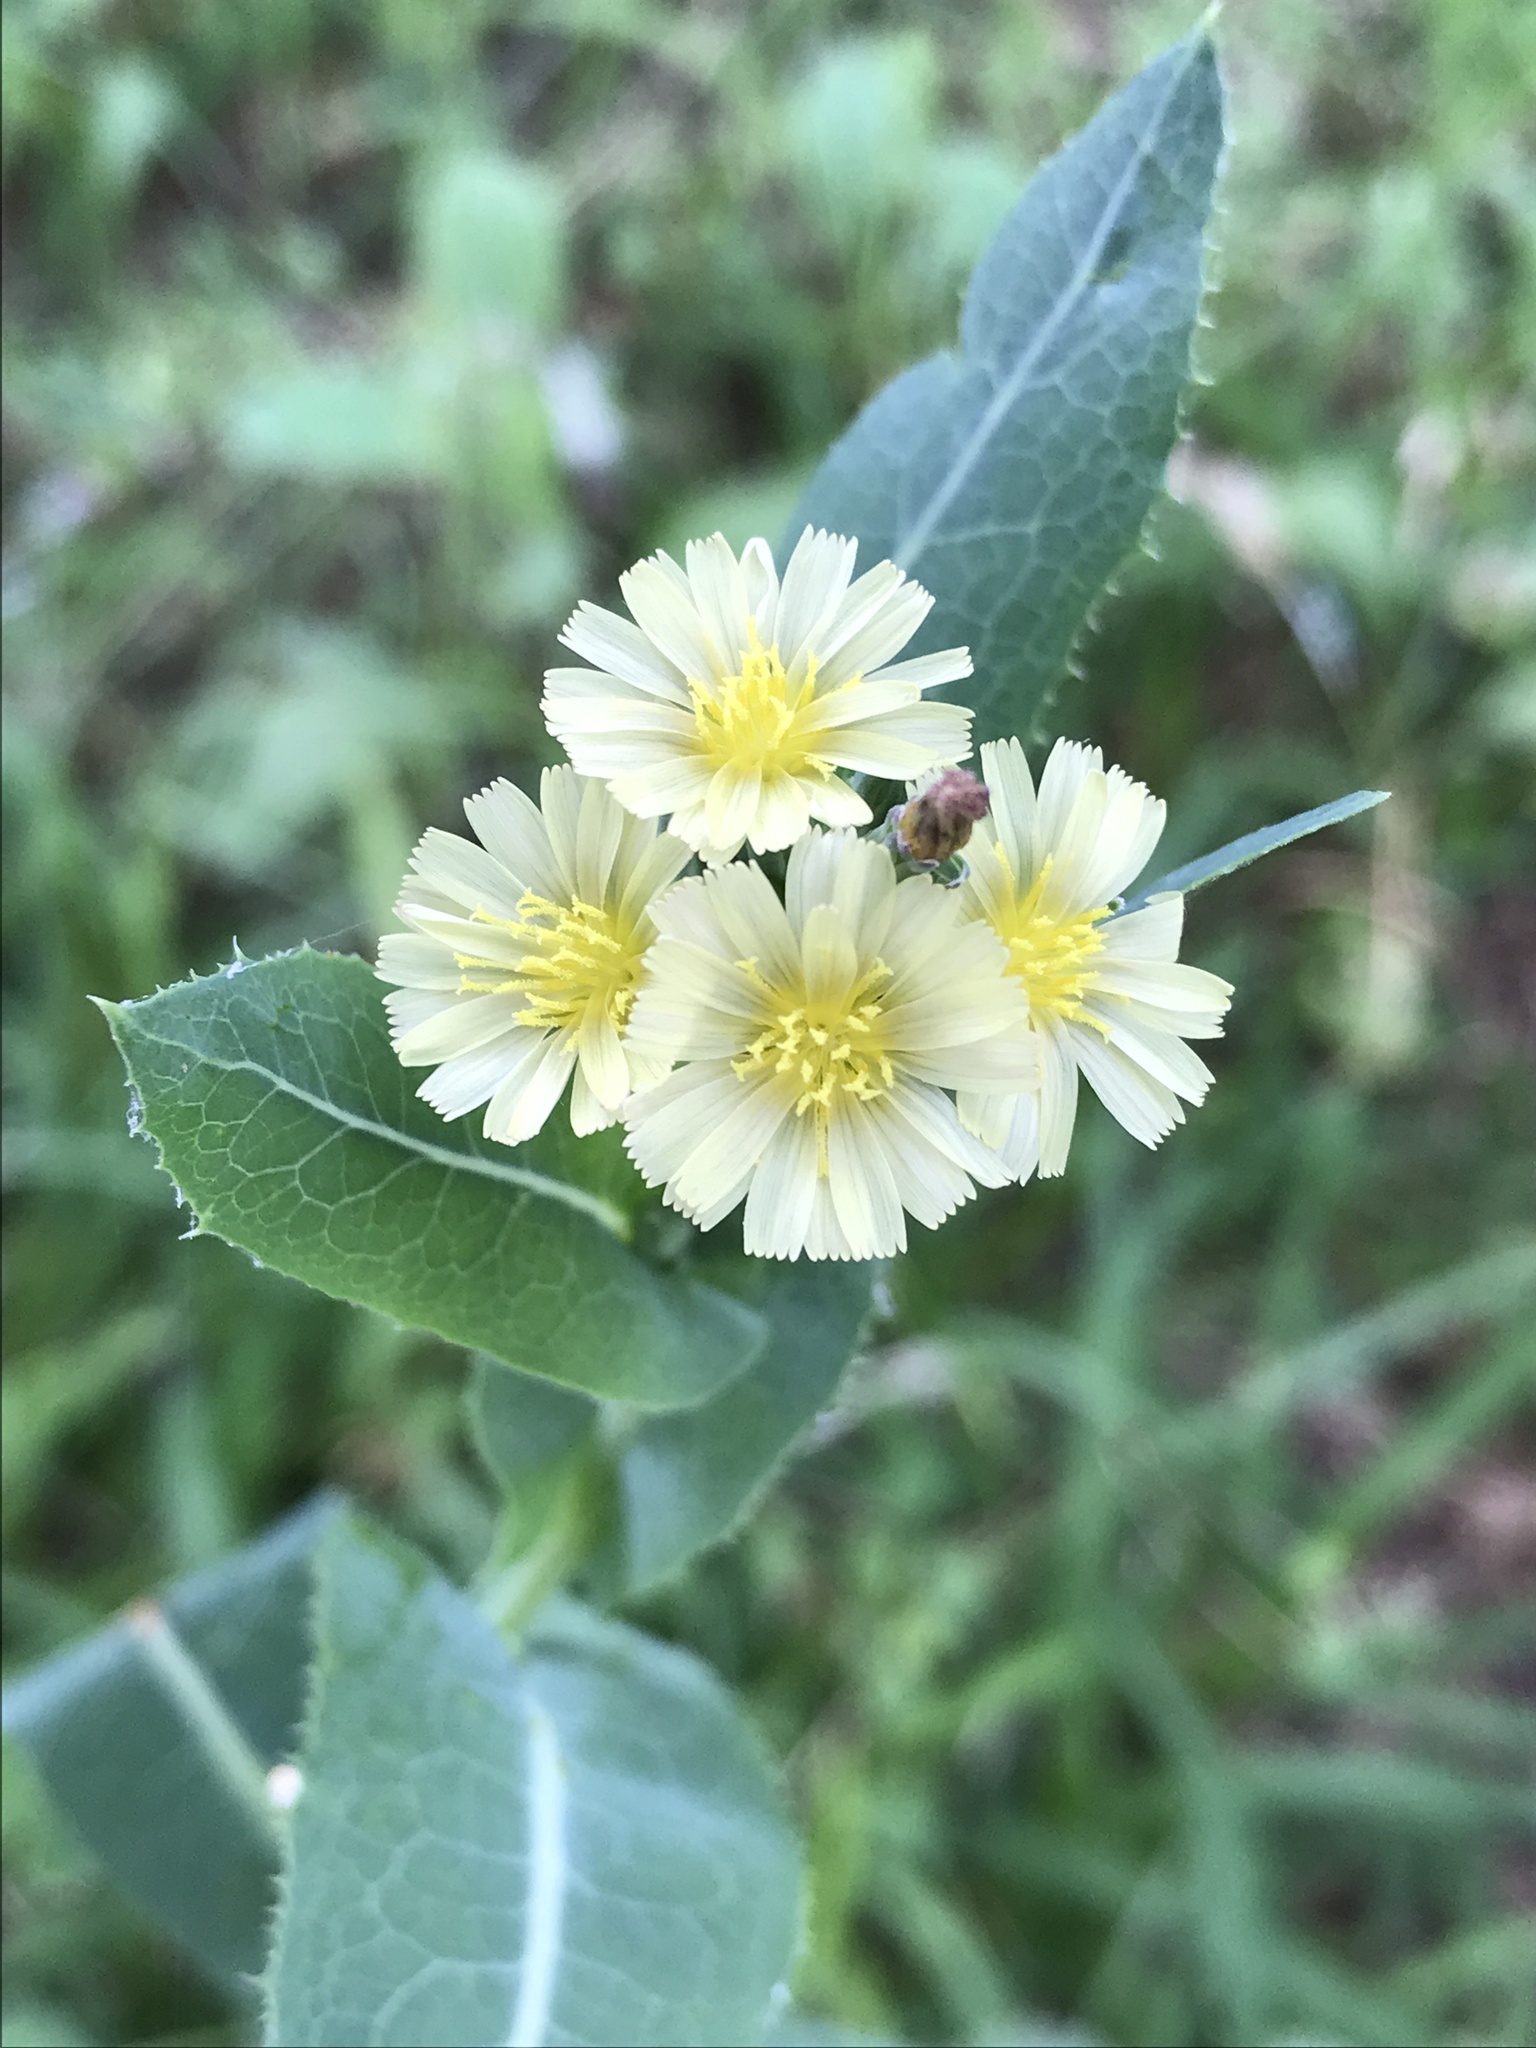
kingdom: Plantae
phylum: Tracheophyta
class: Magnoliopsida
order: Asterales
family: Asteraceae
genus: Lactuca
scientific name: Lactuca serriola
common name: Prickly lettuce
